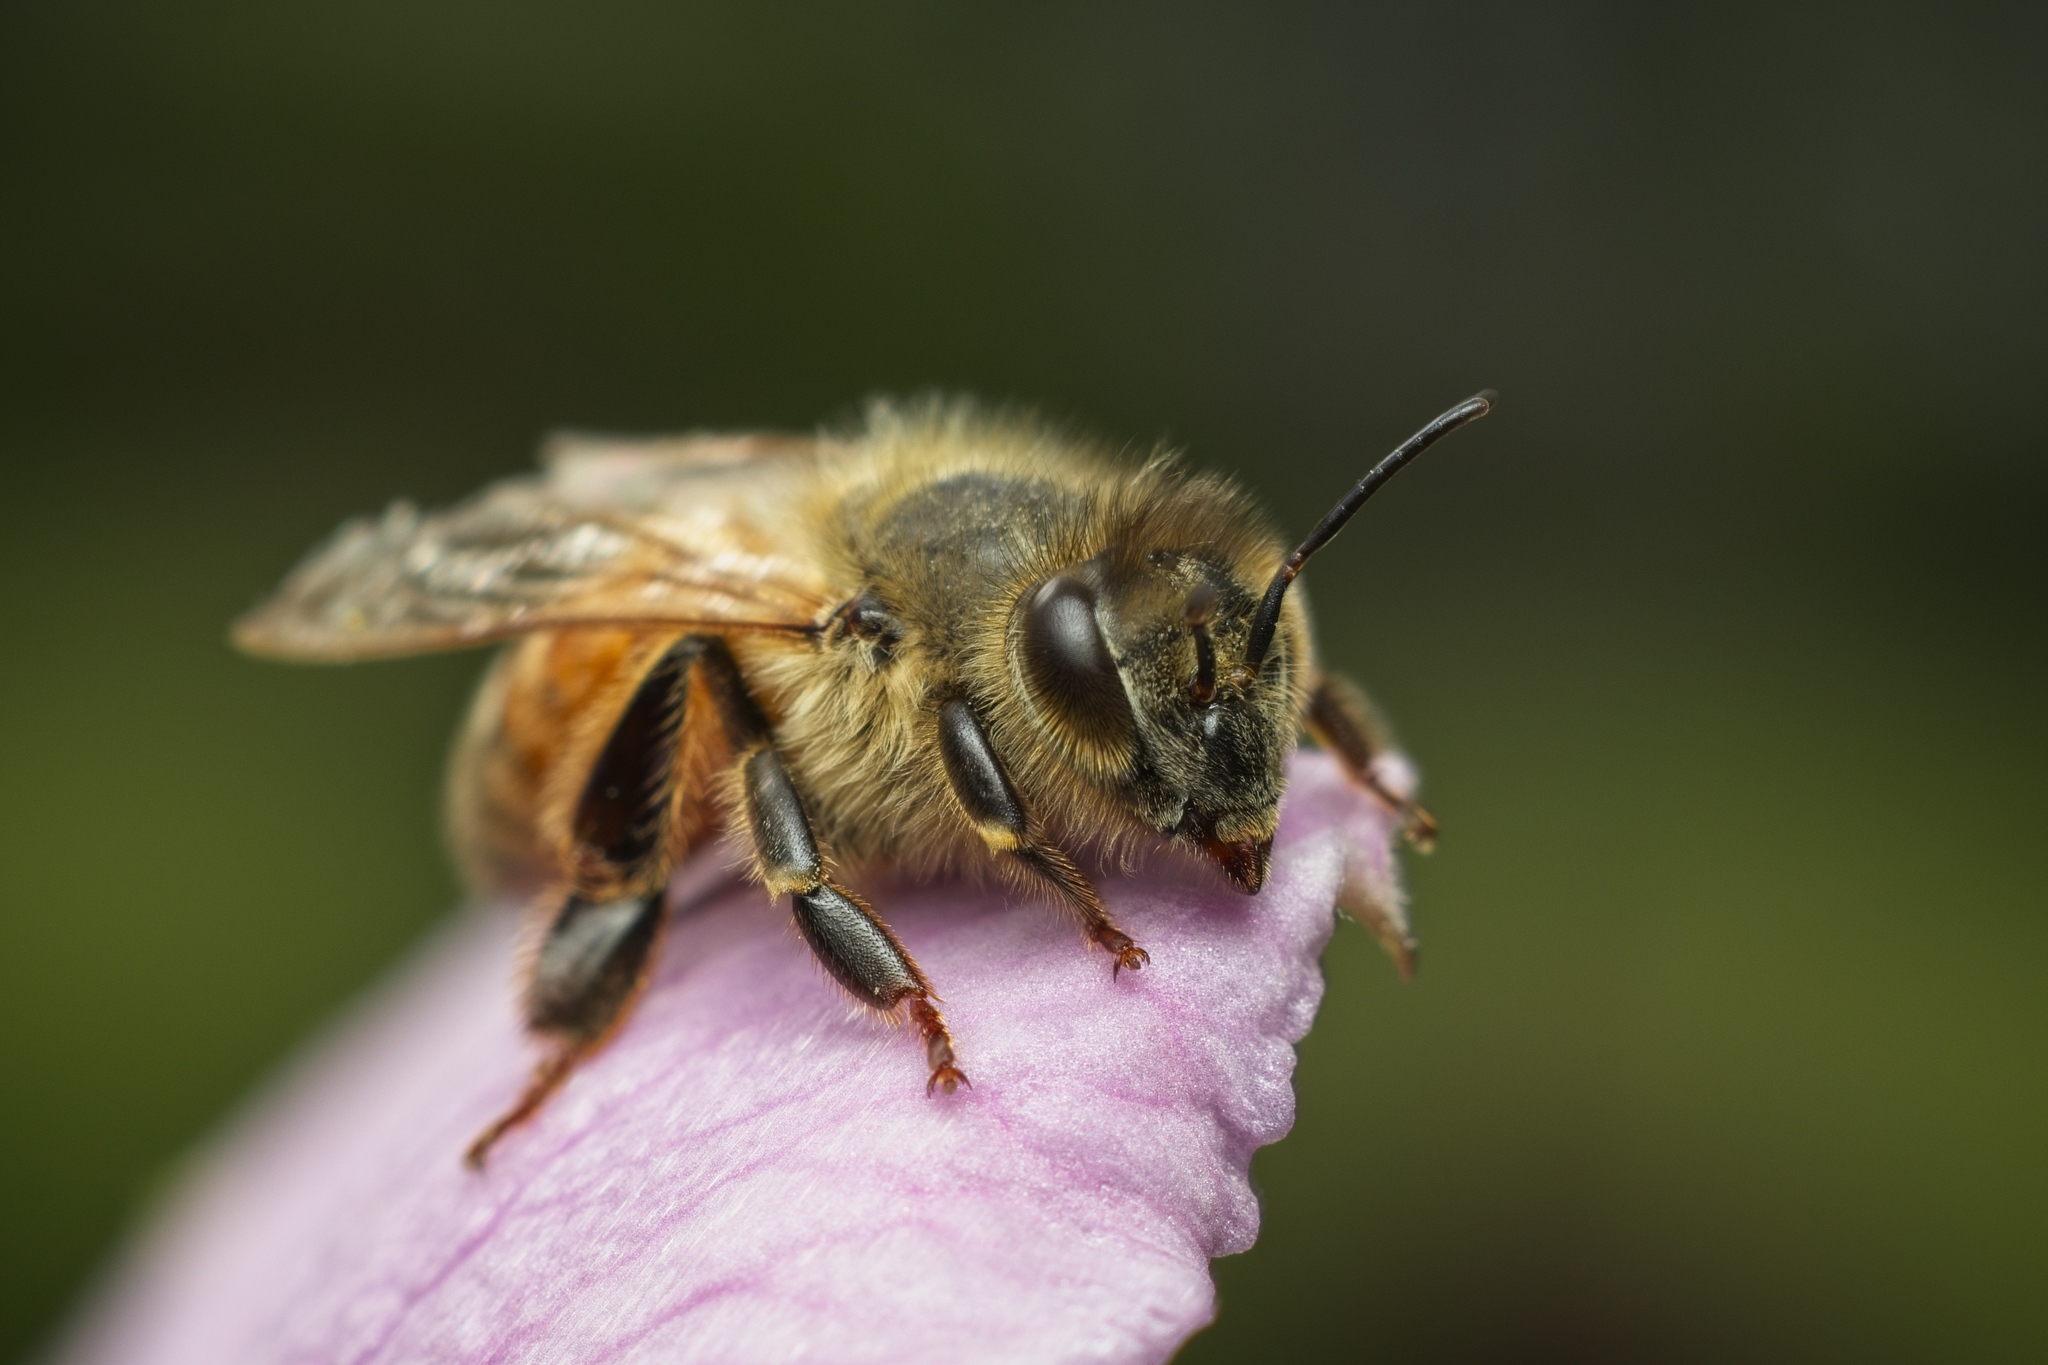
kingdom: Animalia
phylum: Arthropoda
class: Insecta
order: Hymenoptera
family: Apidae
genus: Apis
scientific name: Apis mellifera
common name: Honey bee
